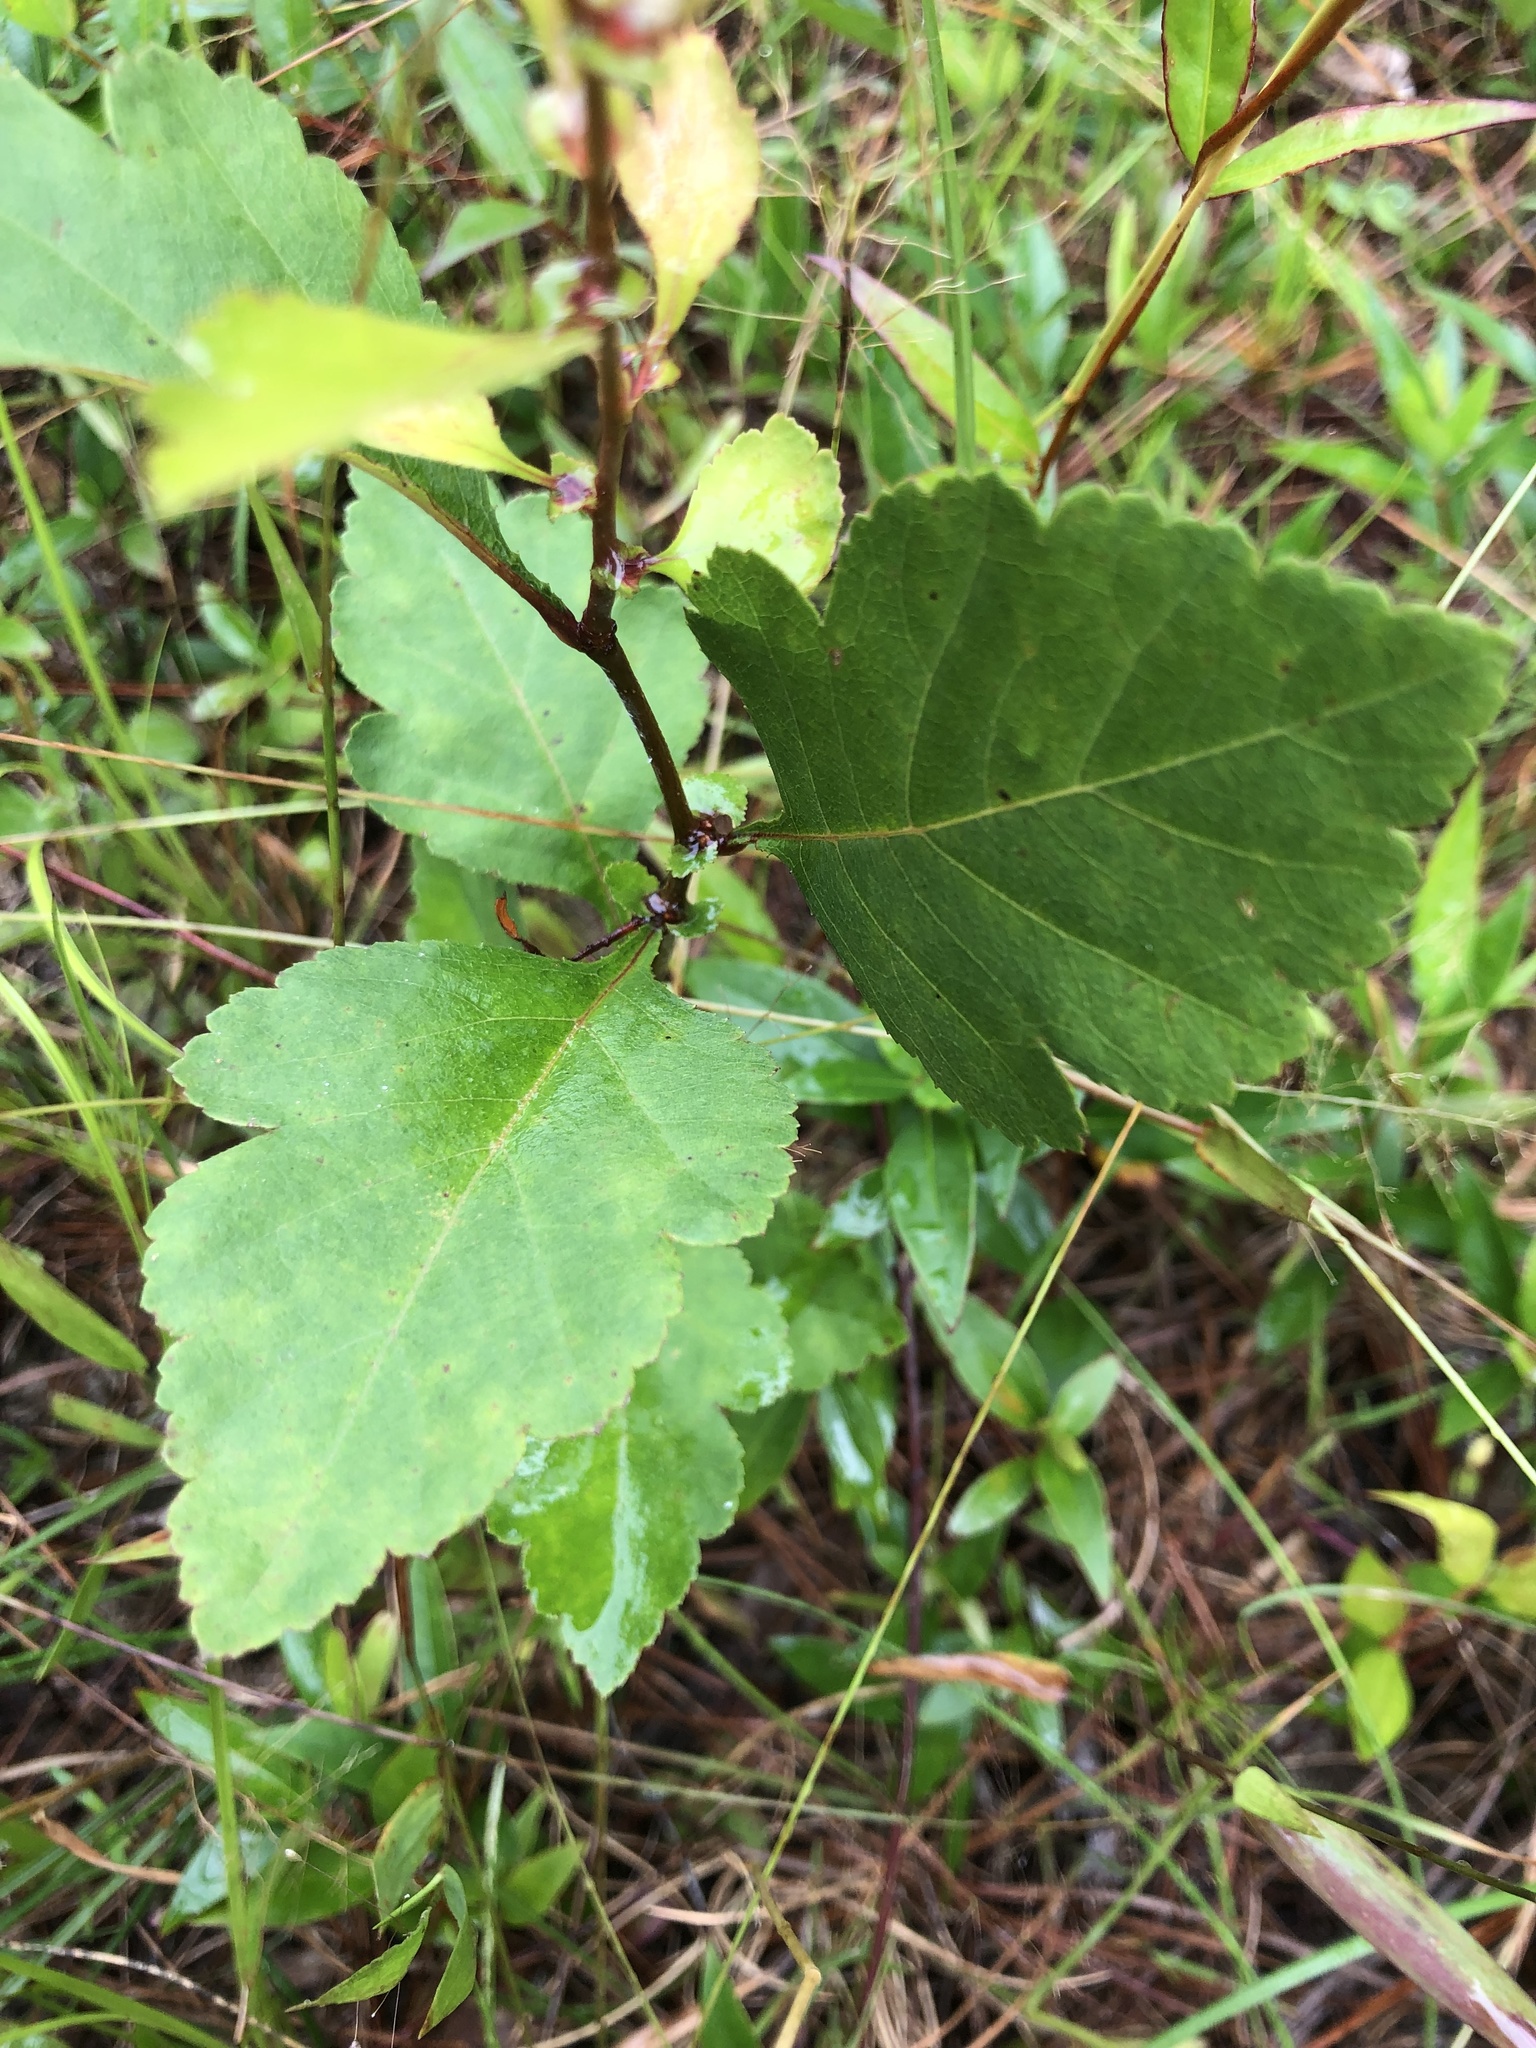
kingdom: Plantae
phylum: Tracheophyta
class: Magnoliopsida
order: Rosales
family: Rosaceae
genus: Crataegus
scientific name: Crataegus pulcherrima
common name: Beautiful hawthorn
